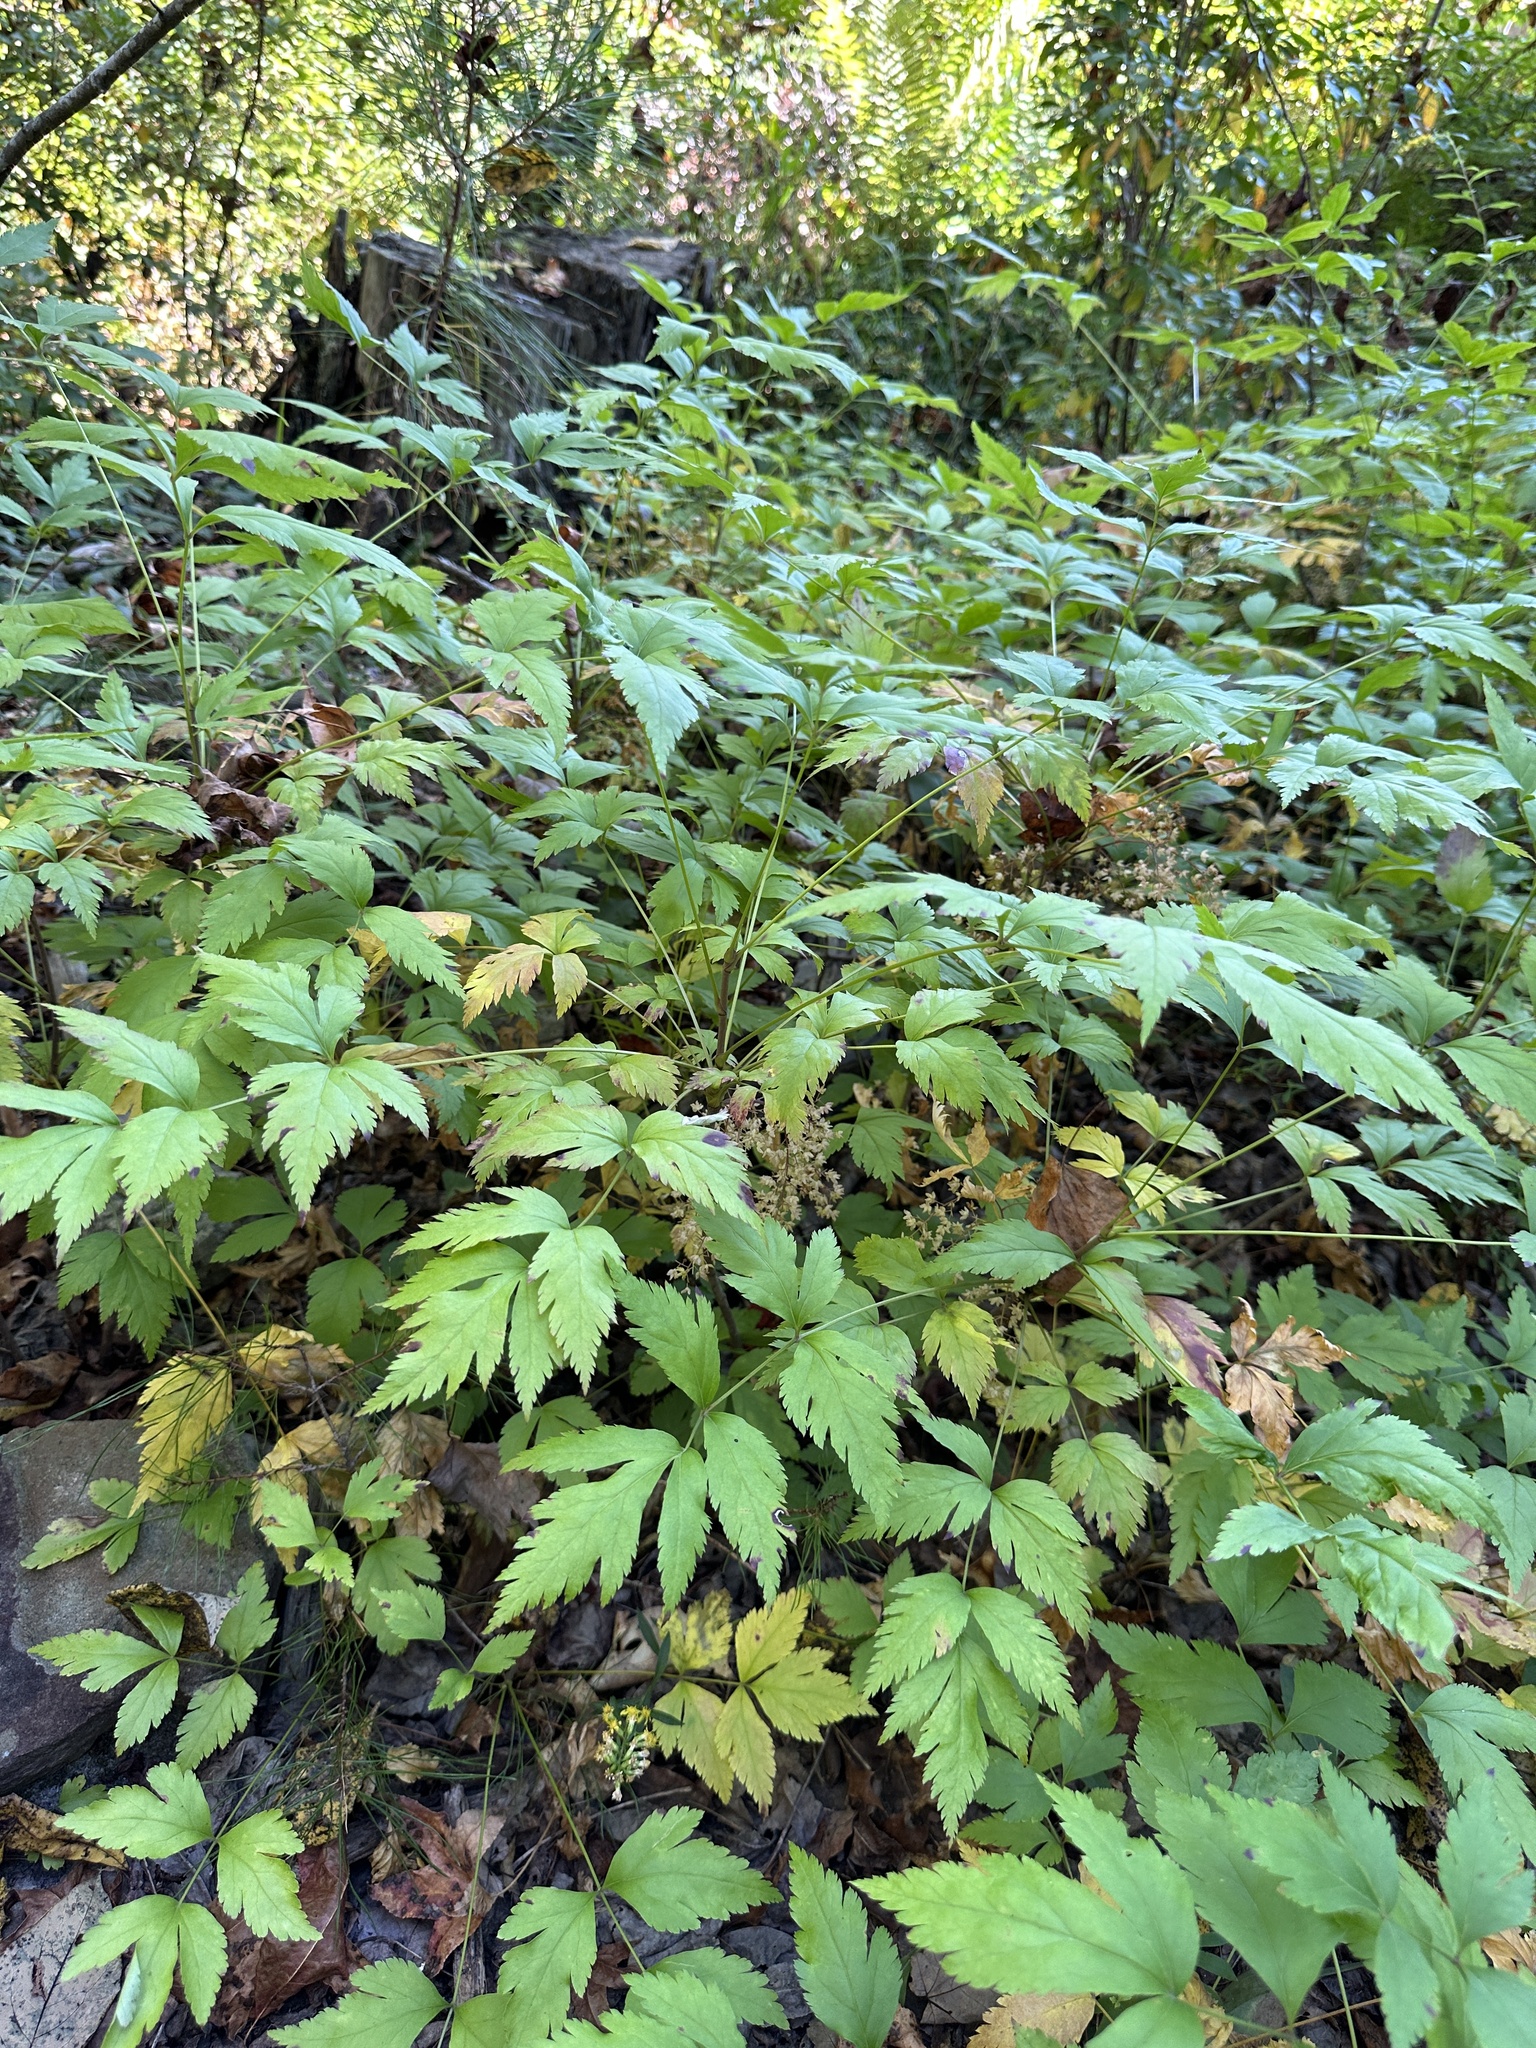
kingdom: Plantae
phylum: Tracheophyta
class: Magnoliopsida
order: Ranunculales
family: Ranunculaceae
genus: Xanthorhiza
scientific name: Xanthorhiza simplicissima
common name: Yellowroot
